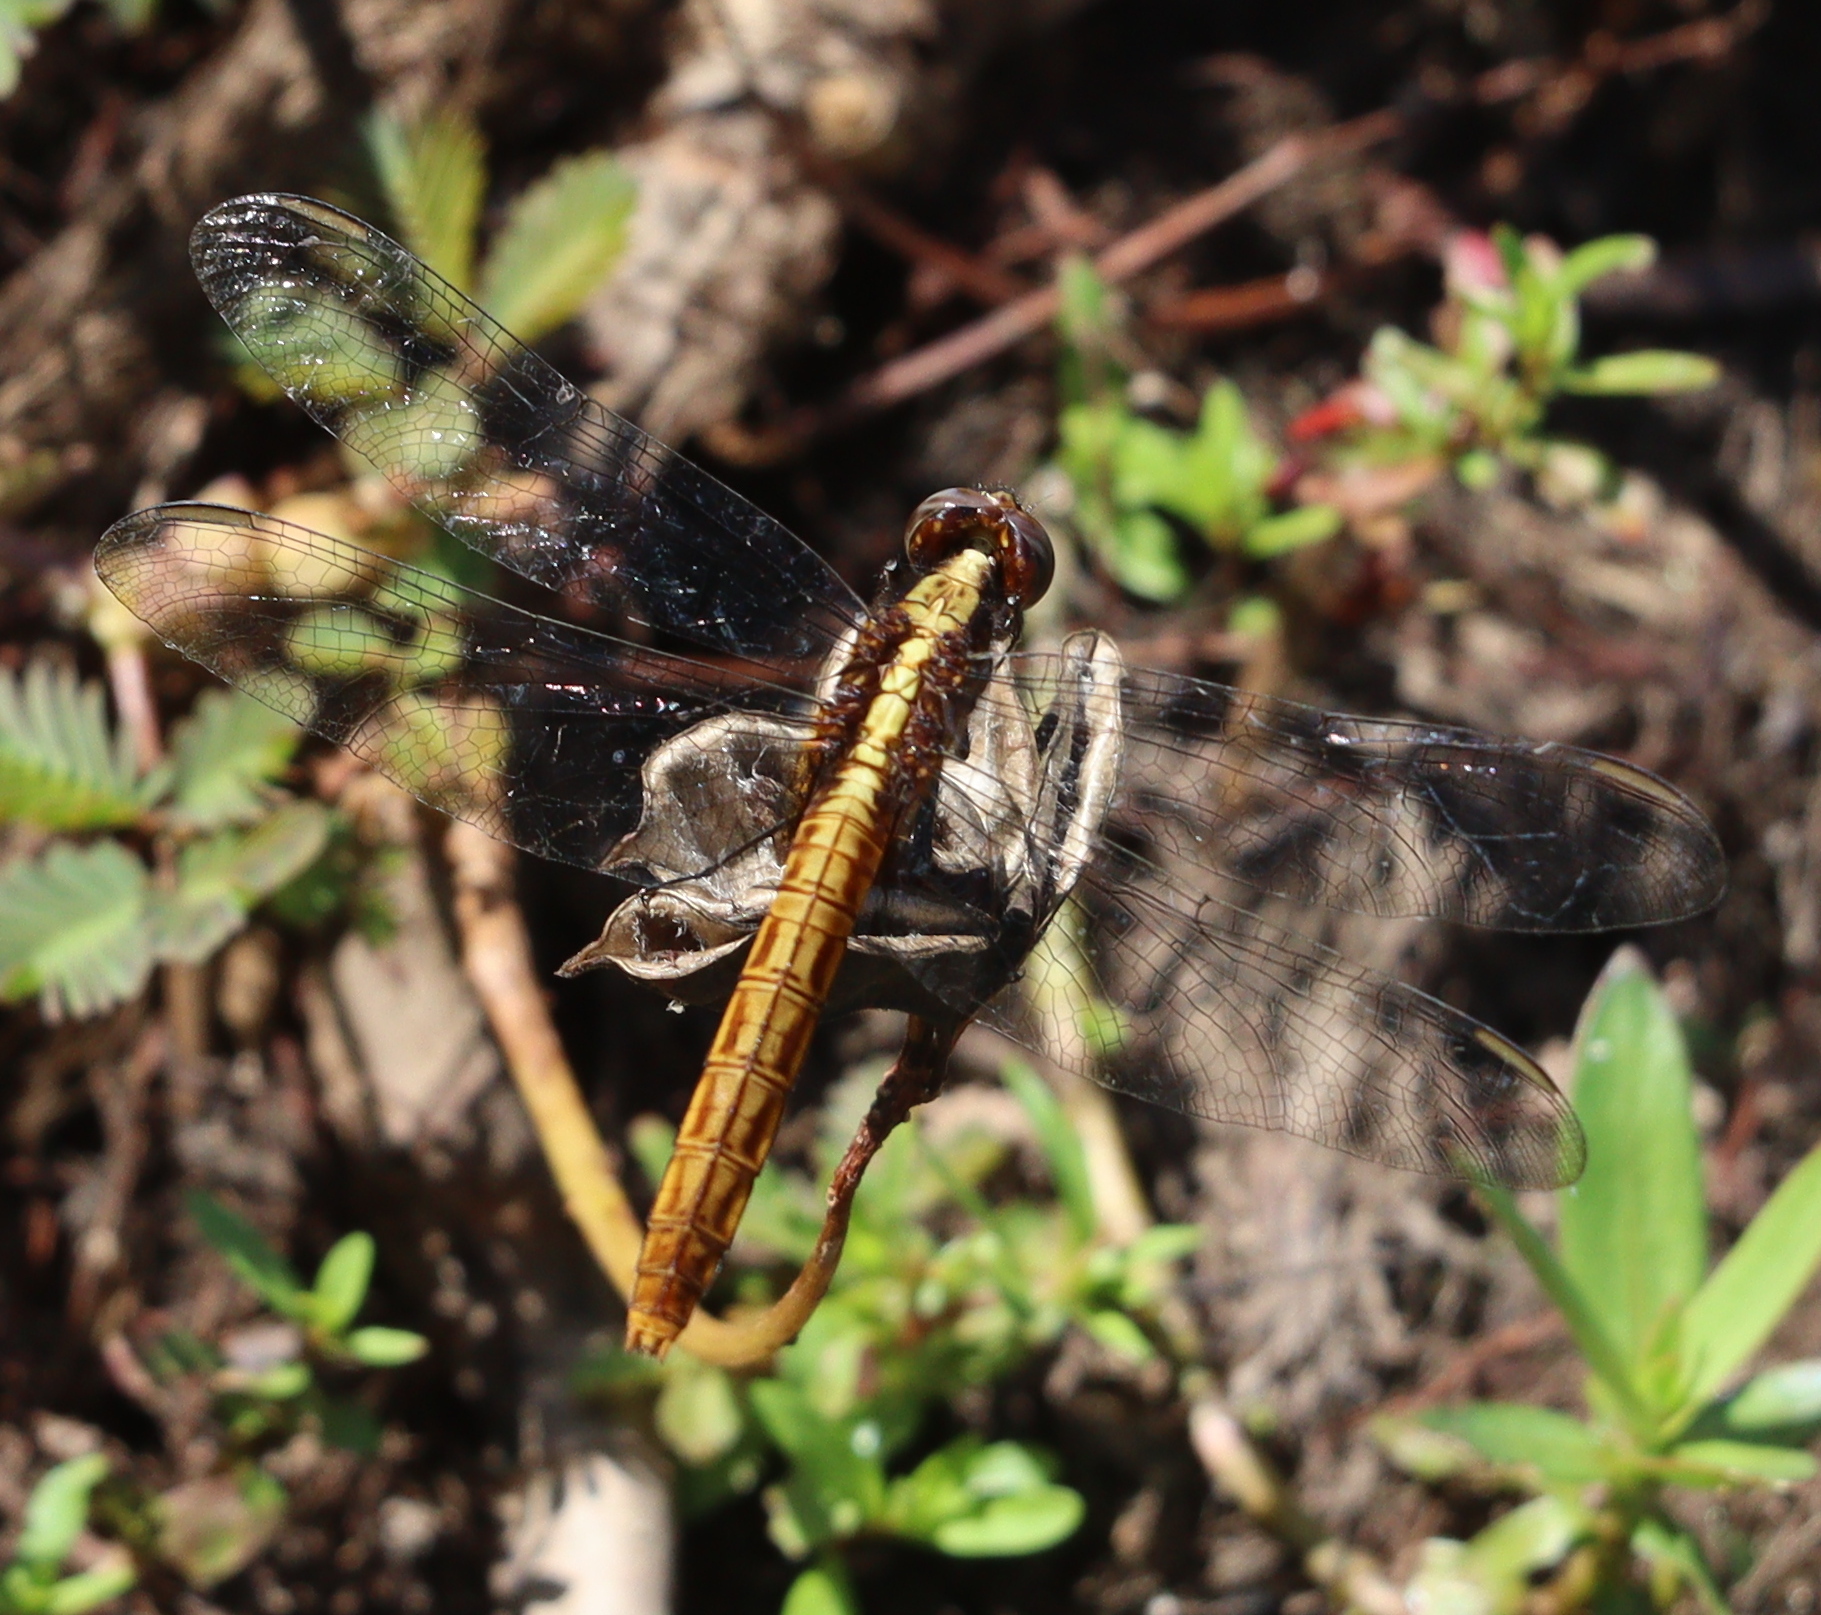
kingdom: Animalia
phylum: Arthropoda
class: Insecta
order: Odonata
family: Libellulidae
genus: Erythemis
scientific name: Erythemis peruviana
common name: Flame-tailed pondhawk
